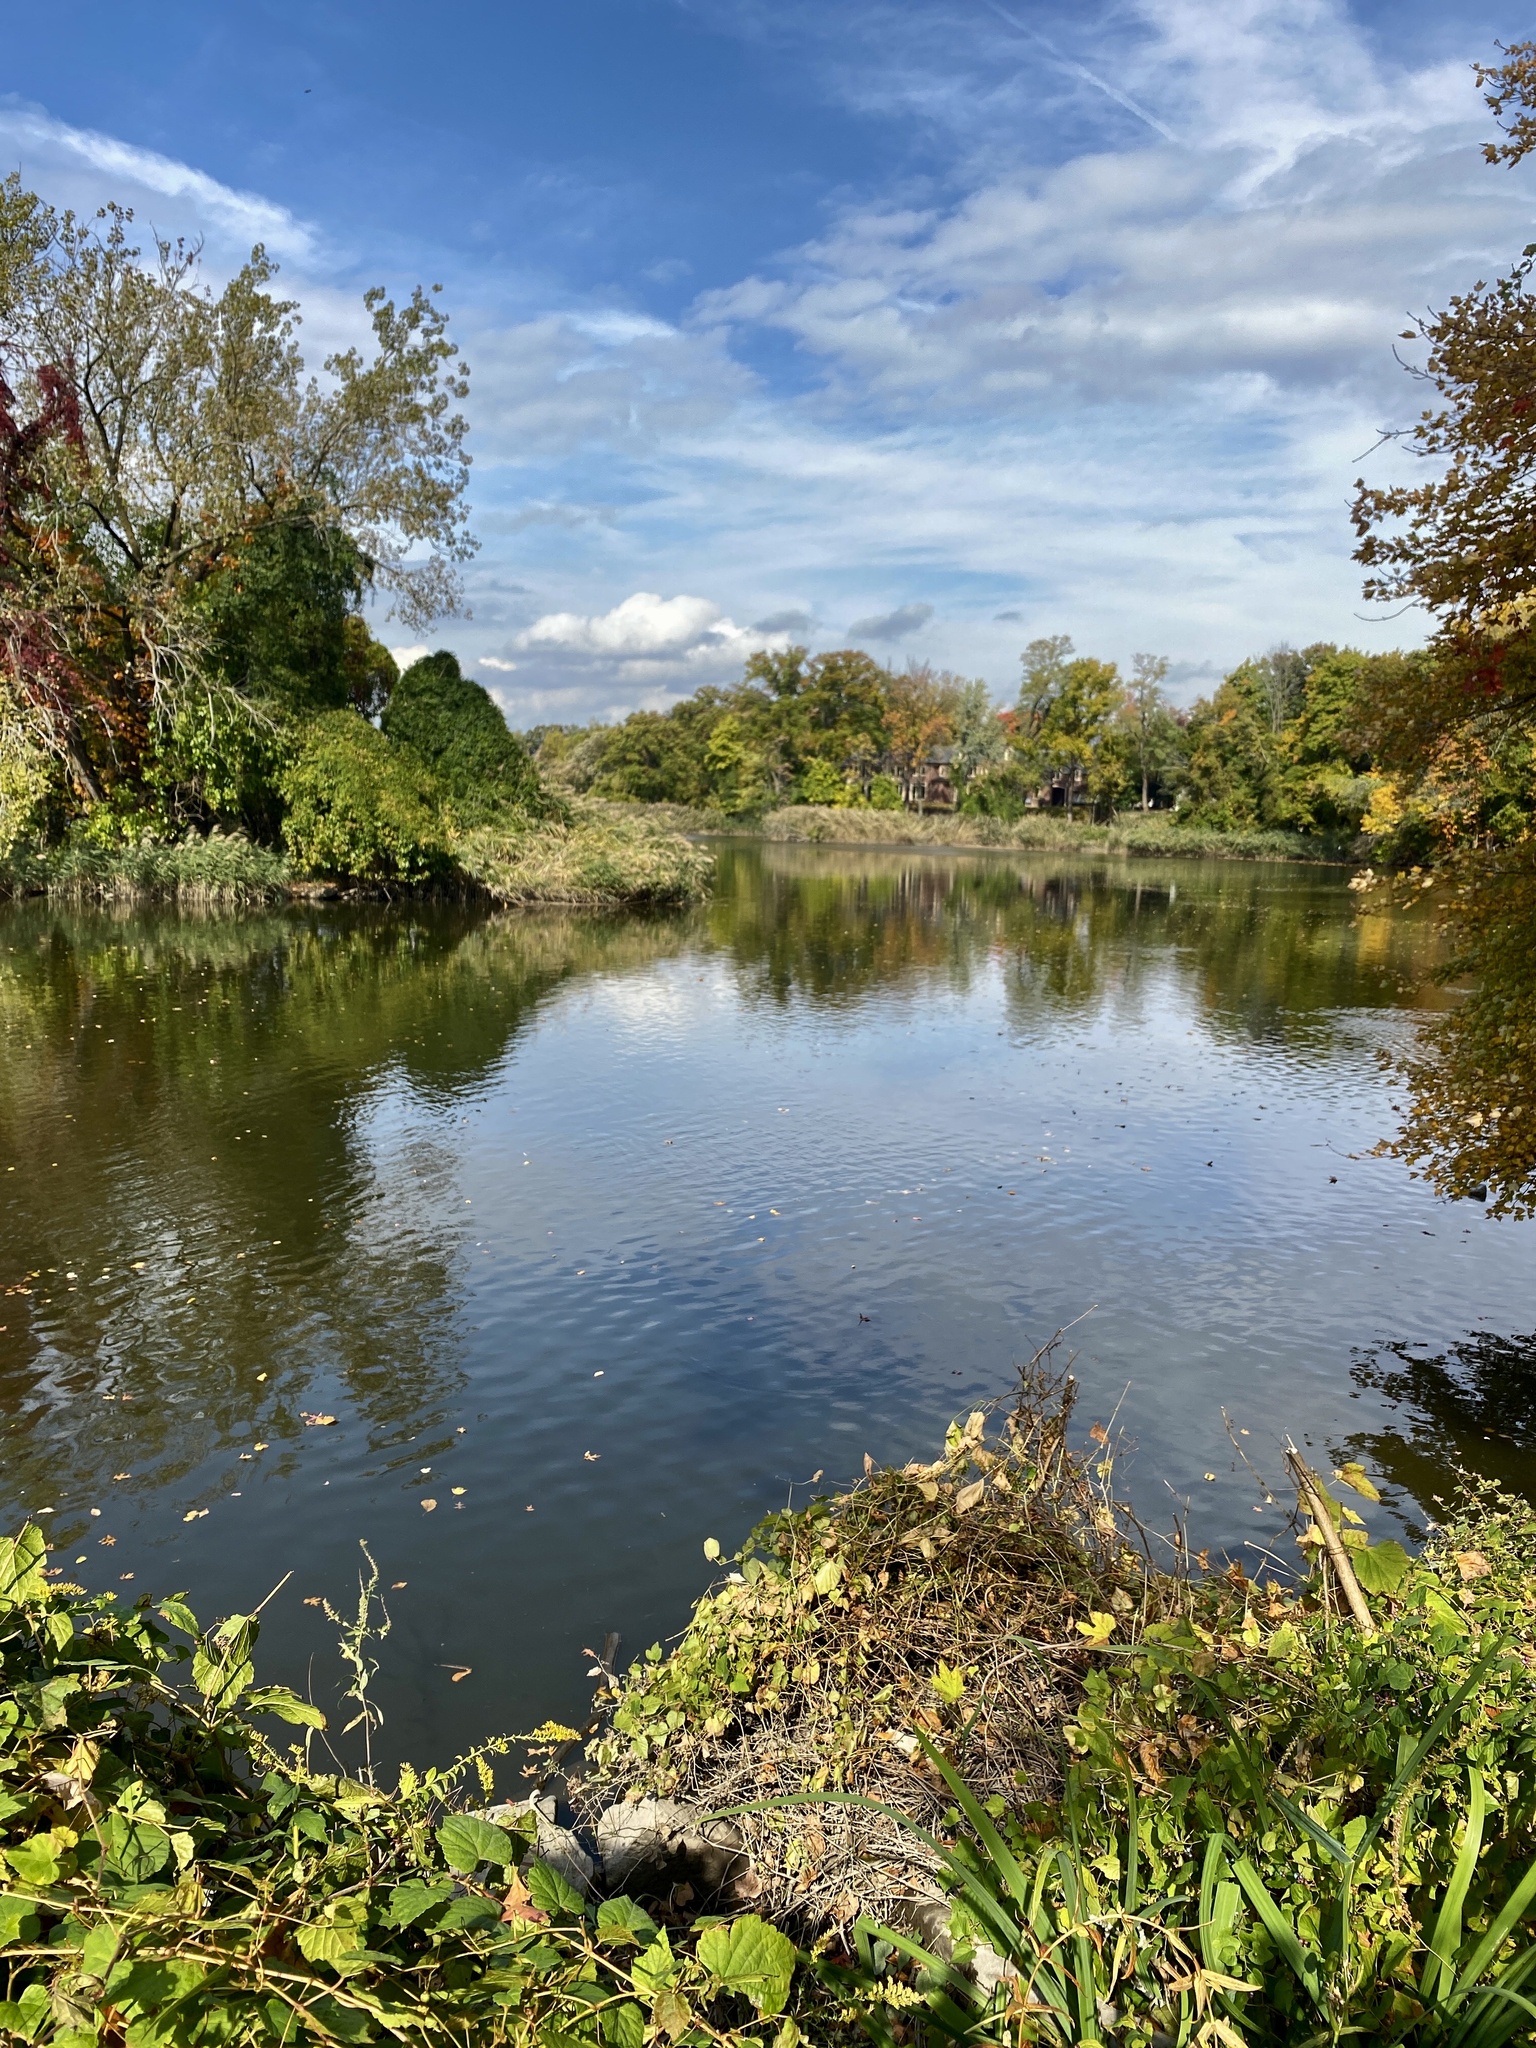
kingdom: Plantae
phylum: Tracheophyta
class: Magnoliopsida
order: Asterales
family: Asteraceae
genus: Solidago
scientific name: Solidago rugosa
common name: Rough-stemmed goldenrod
